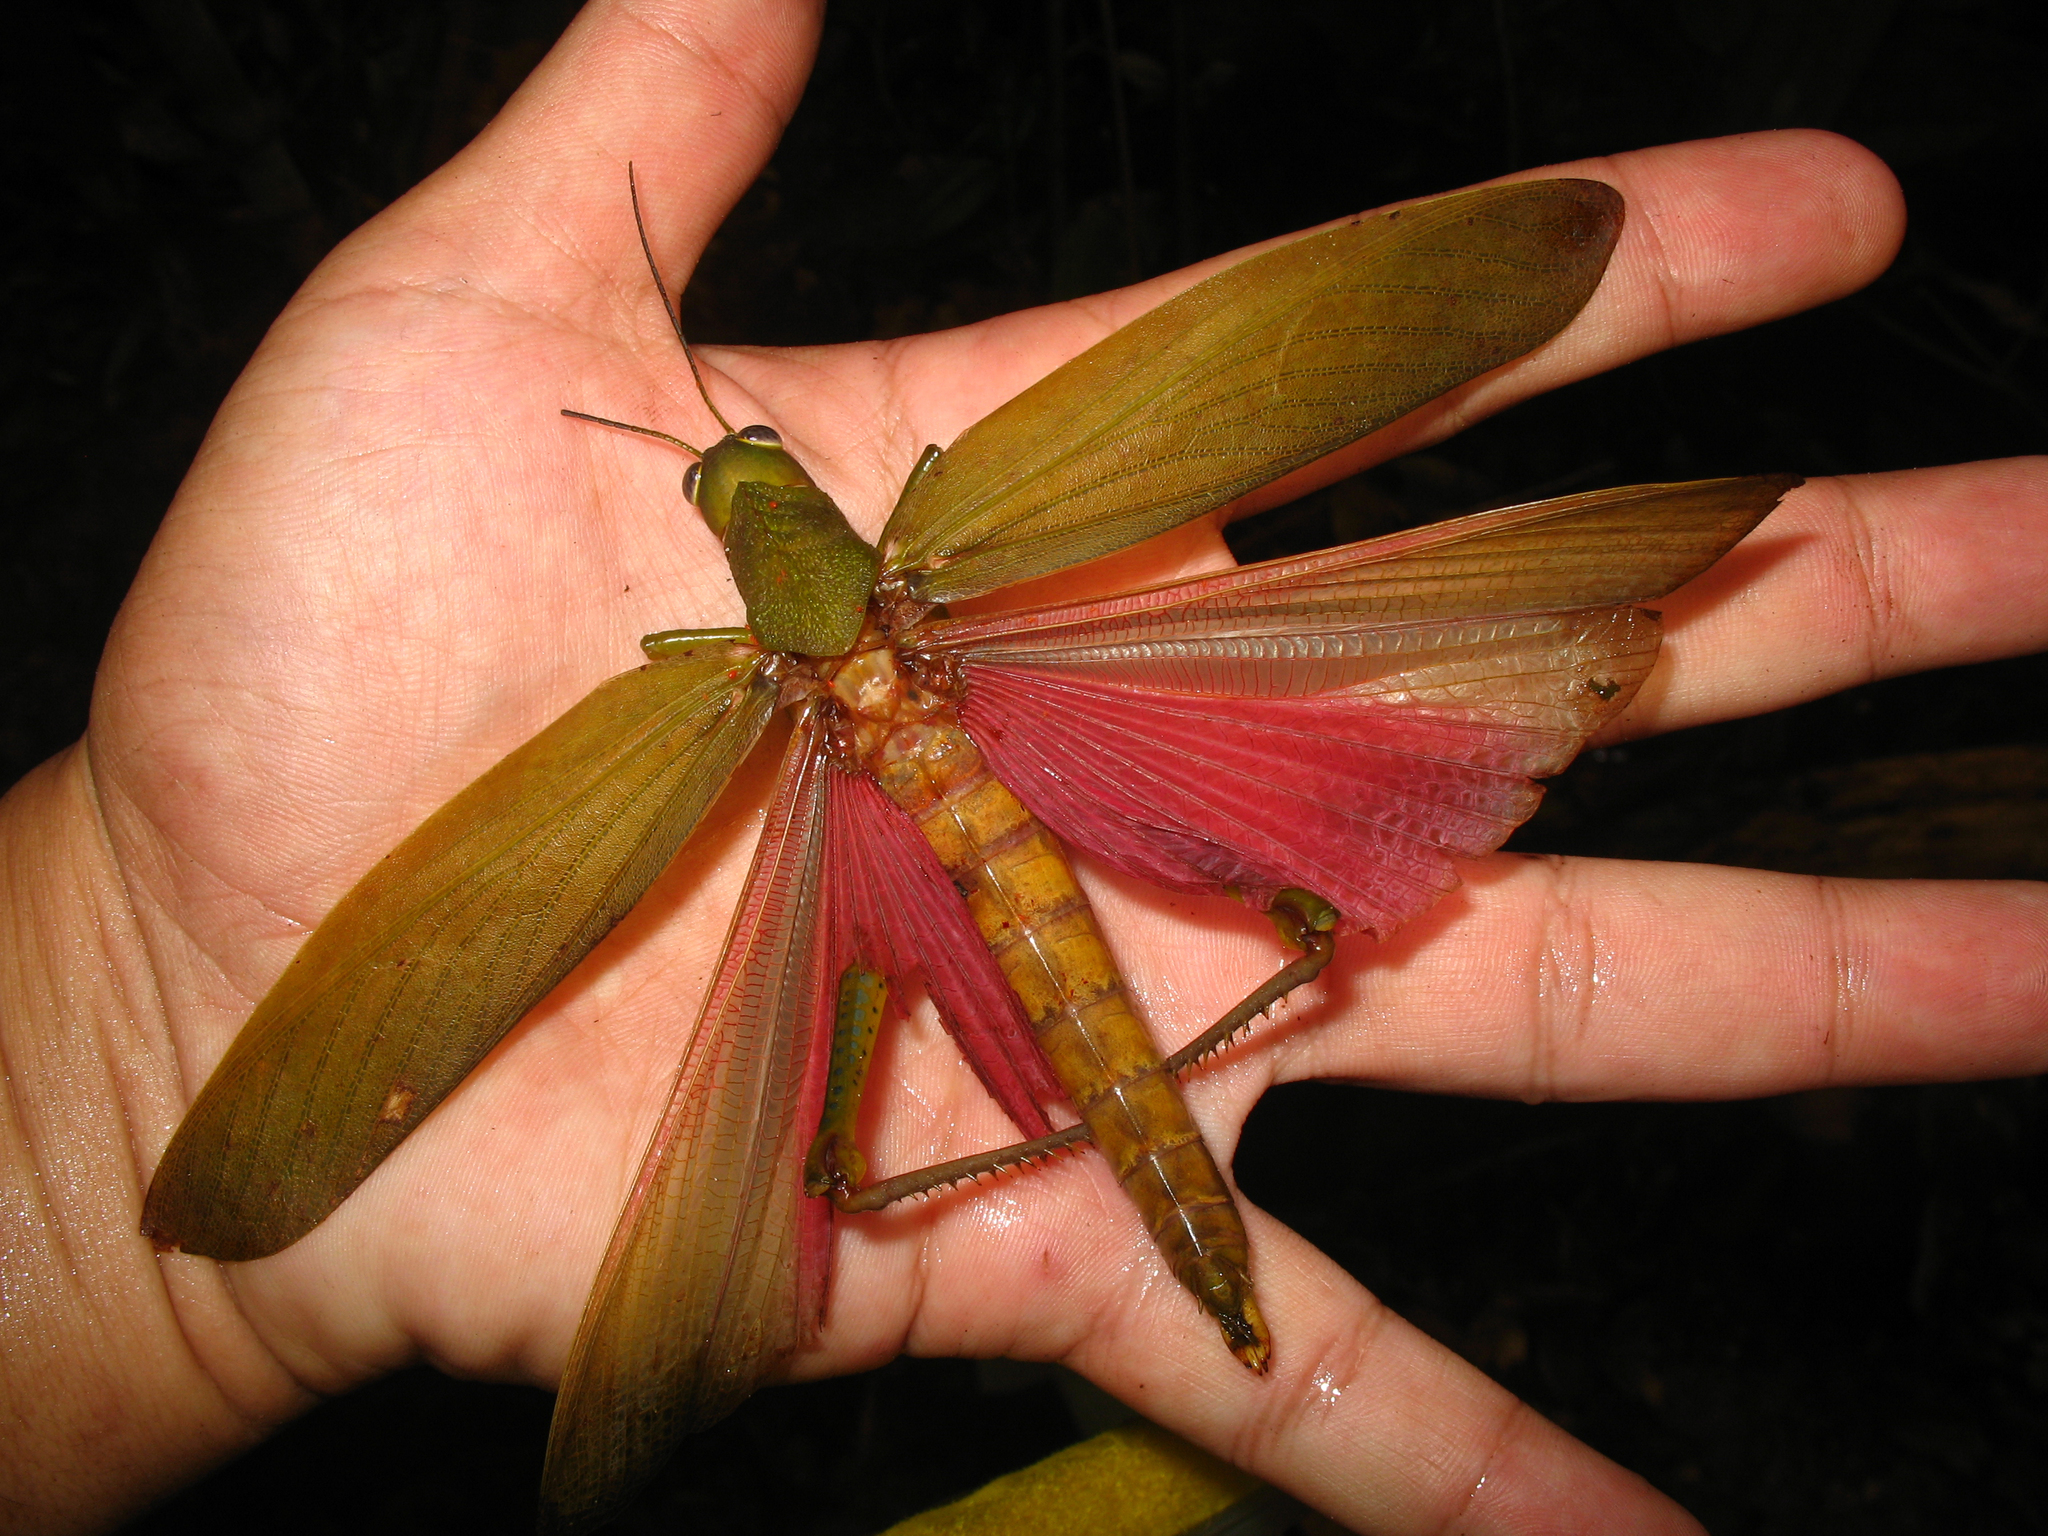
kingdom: Animalia
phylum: Arthropoda
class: Insecta
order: Orthoptera
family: Romaleidae
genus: Titanacris
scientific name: Titanacris picticrus
